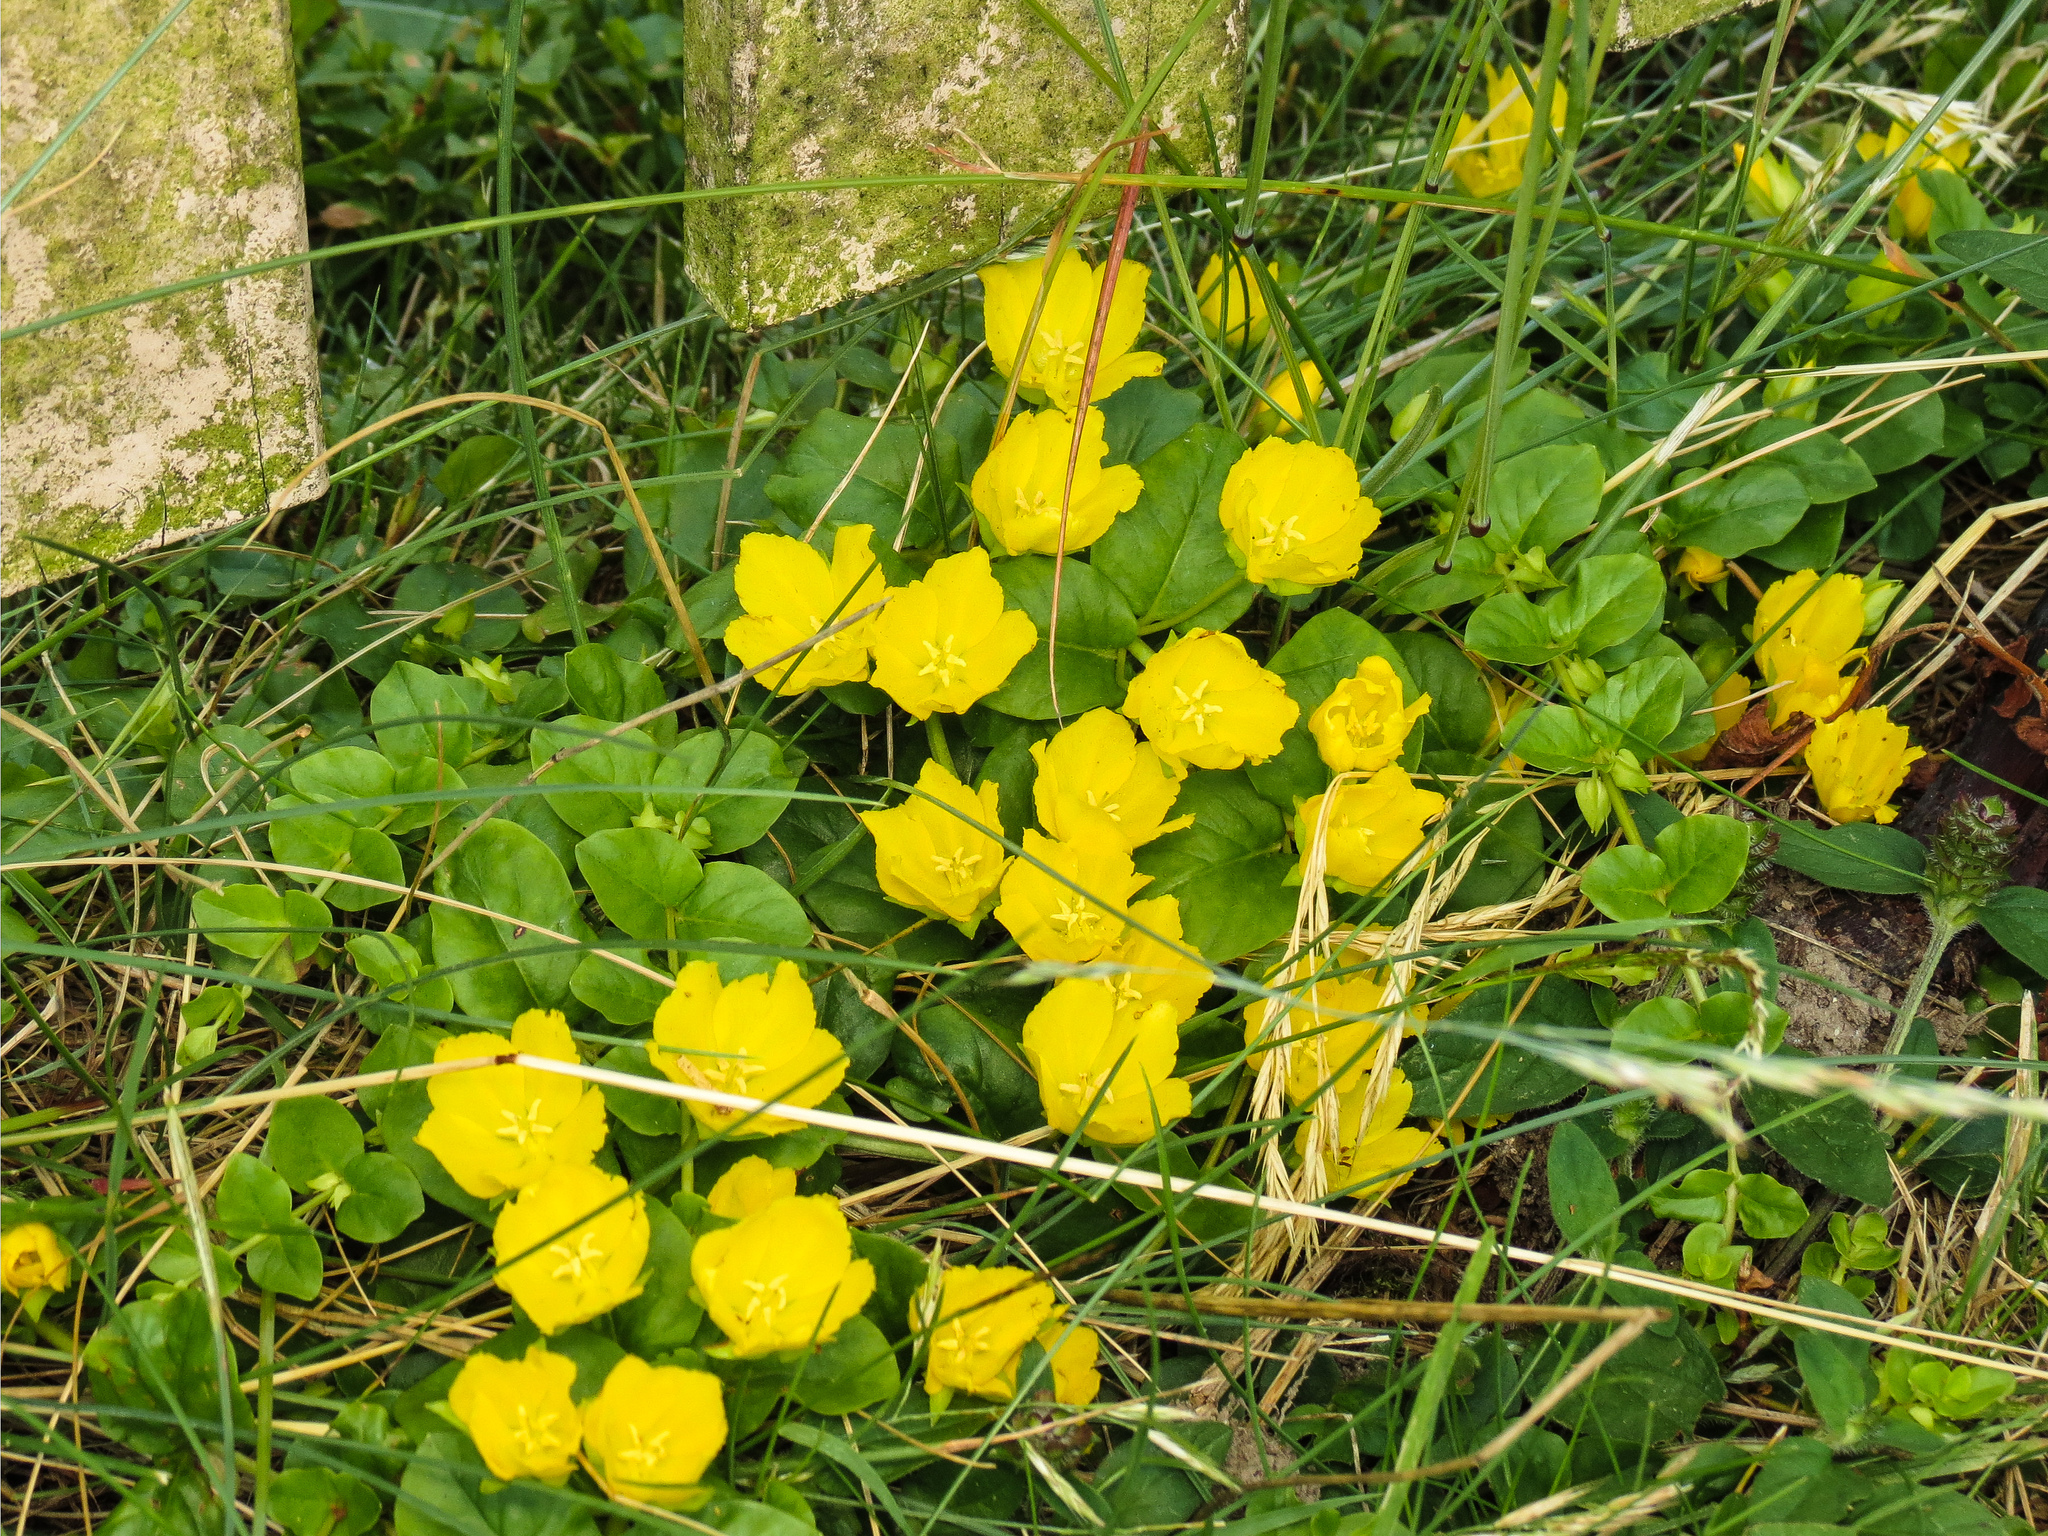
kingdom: Plantae
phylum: Tracheophyta
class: Magnoliopsida
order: Ericales
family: Primulaceae
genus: Lysimachia
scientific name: Lysimachia nummularia
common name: Moneywort
